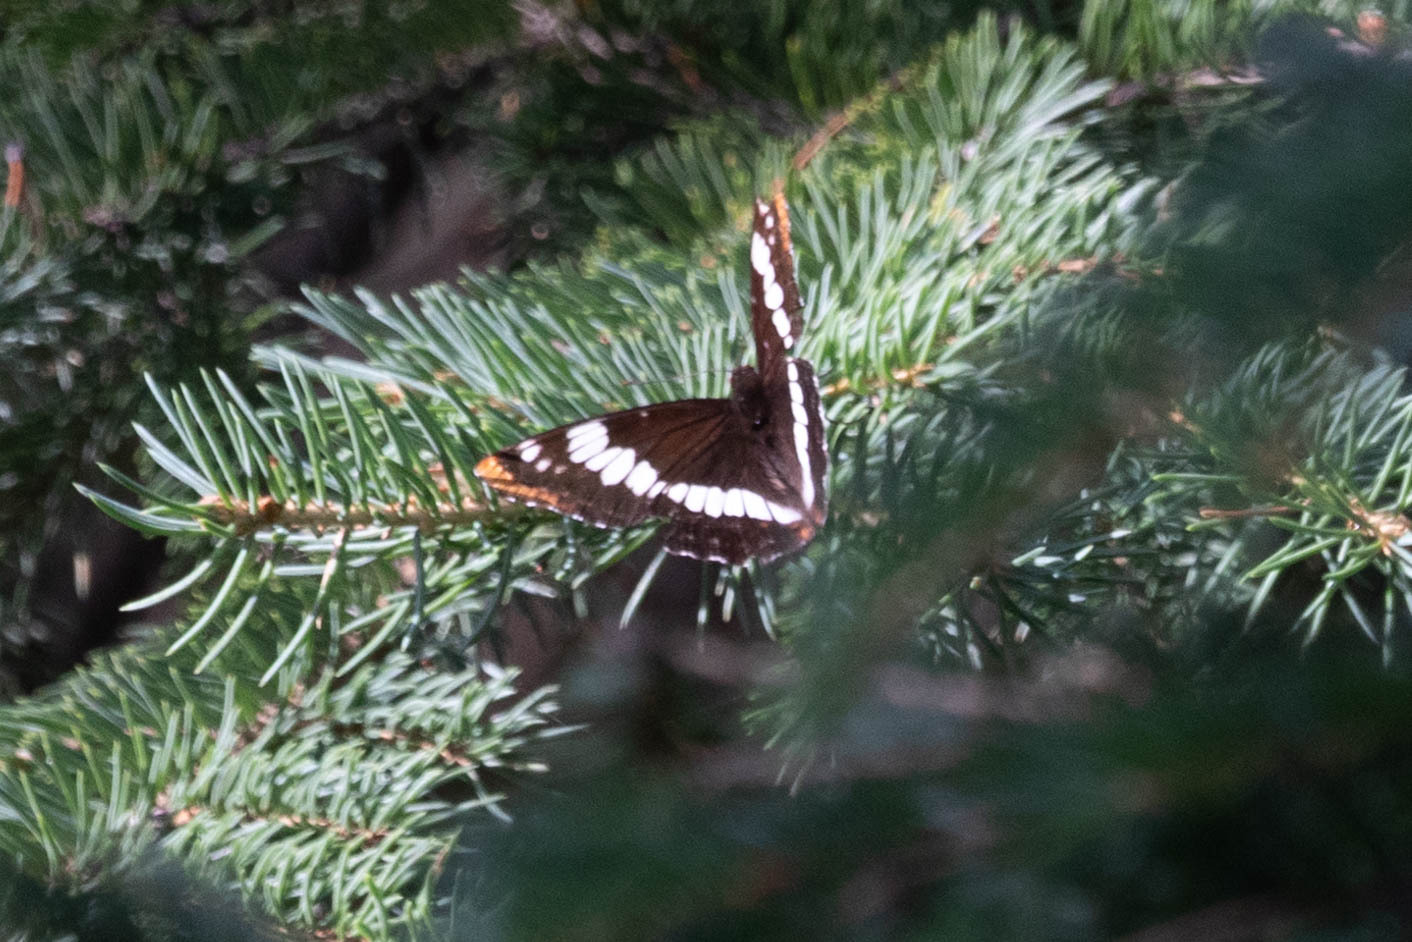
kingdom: Animalia
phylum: Arthropoda
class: Insecta
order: Lepidoptera
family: Nymphalidae
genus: Limenitis
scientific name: Limenitis lorquini
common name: Lorquin's admiral
